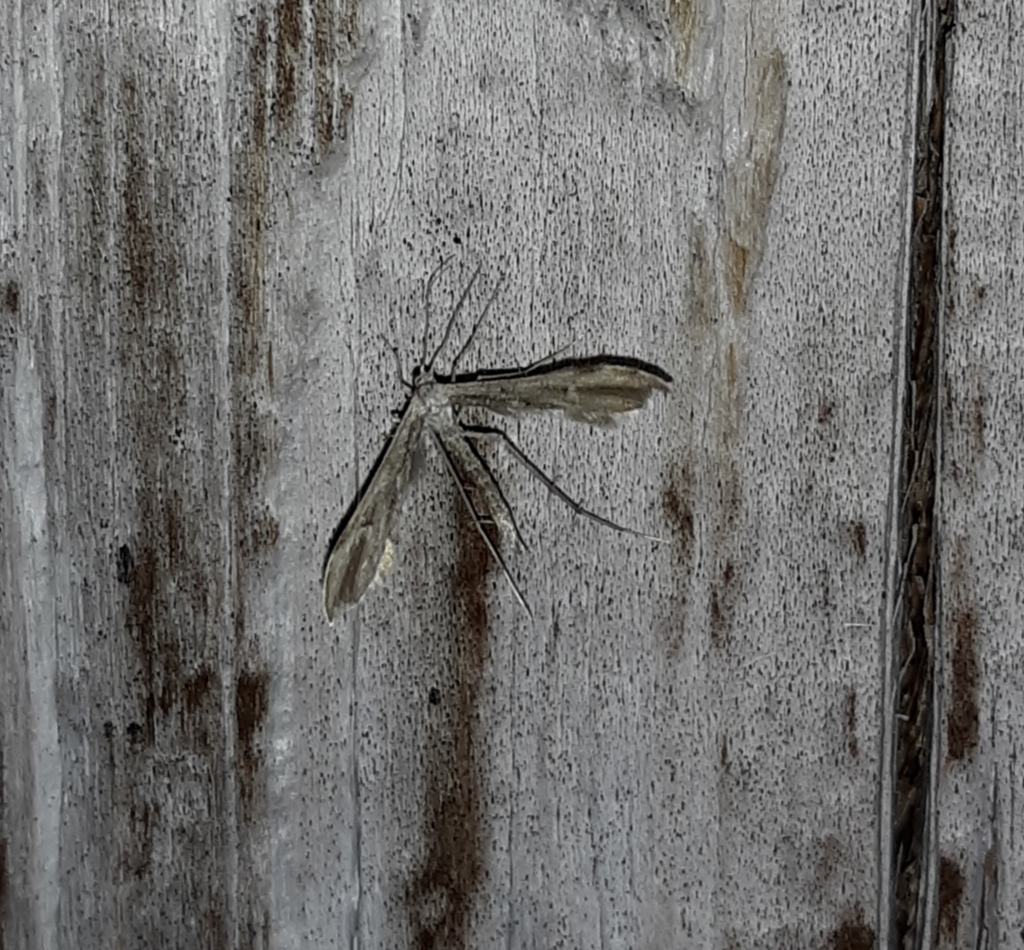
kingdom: Animalia
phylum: Arthropoda
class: Insecta
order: Lepidoptera
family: Pterophoridae
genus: Hellinsia
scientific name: Hellinsia inquinatus
